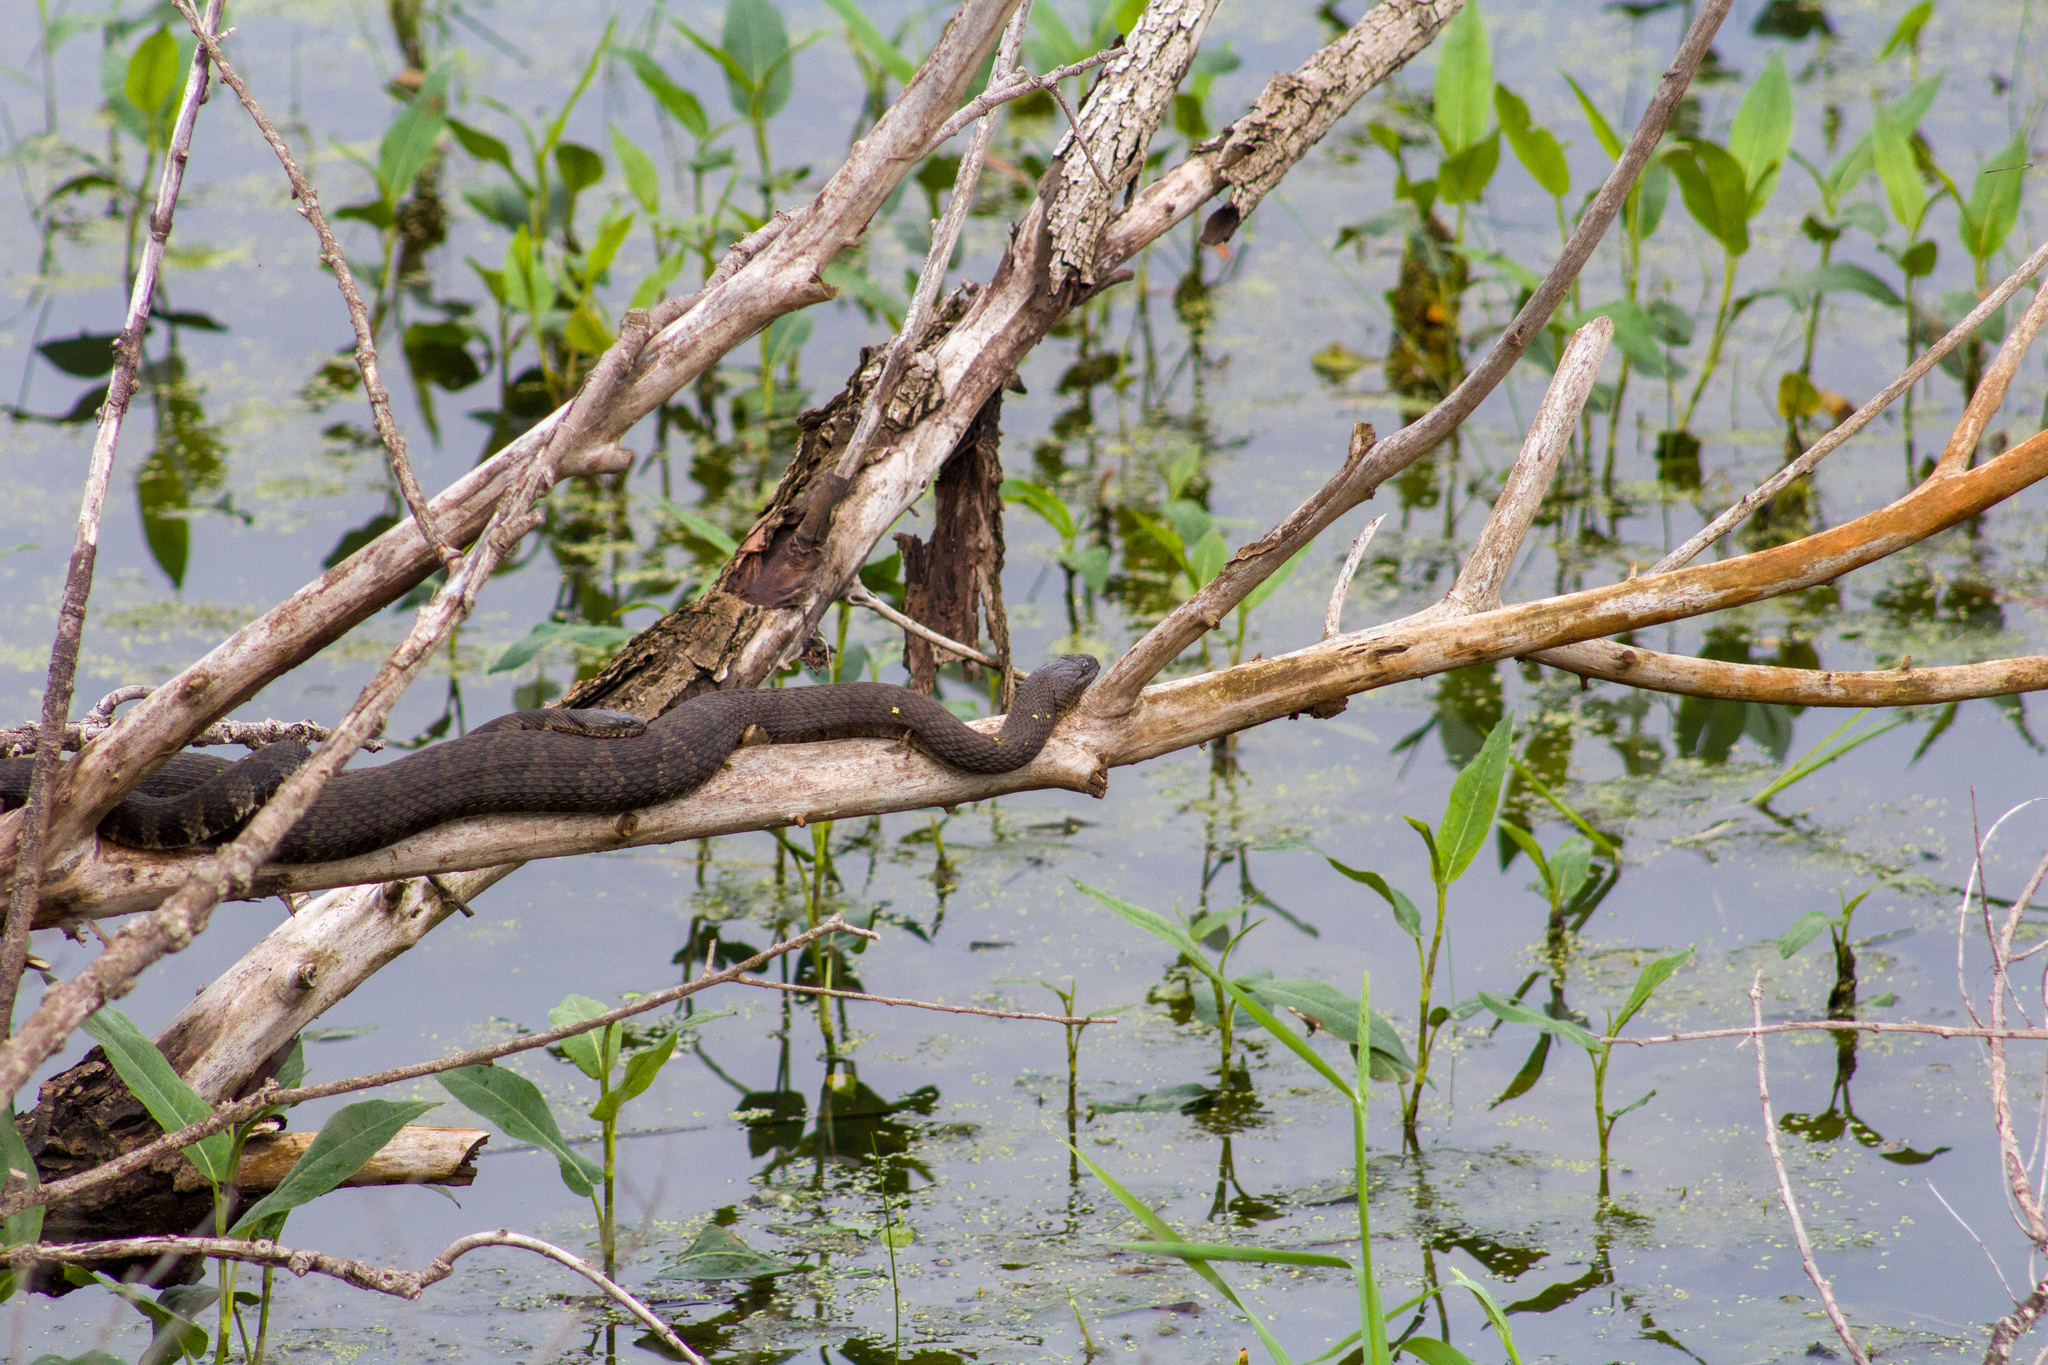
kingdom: Animalia
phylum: Chordata
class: Squamata
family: Colubridae
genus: Nerodia
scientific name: Nerodia sipedon
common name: Northern water snake
